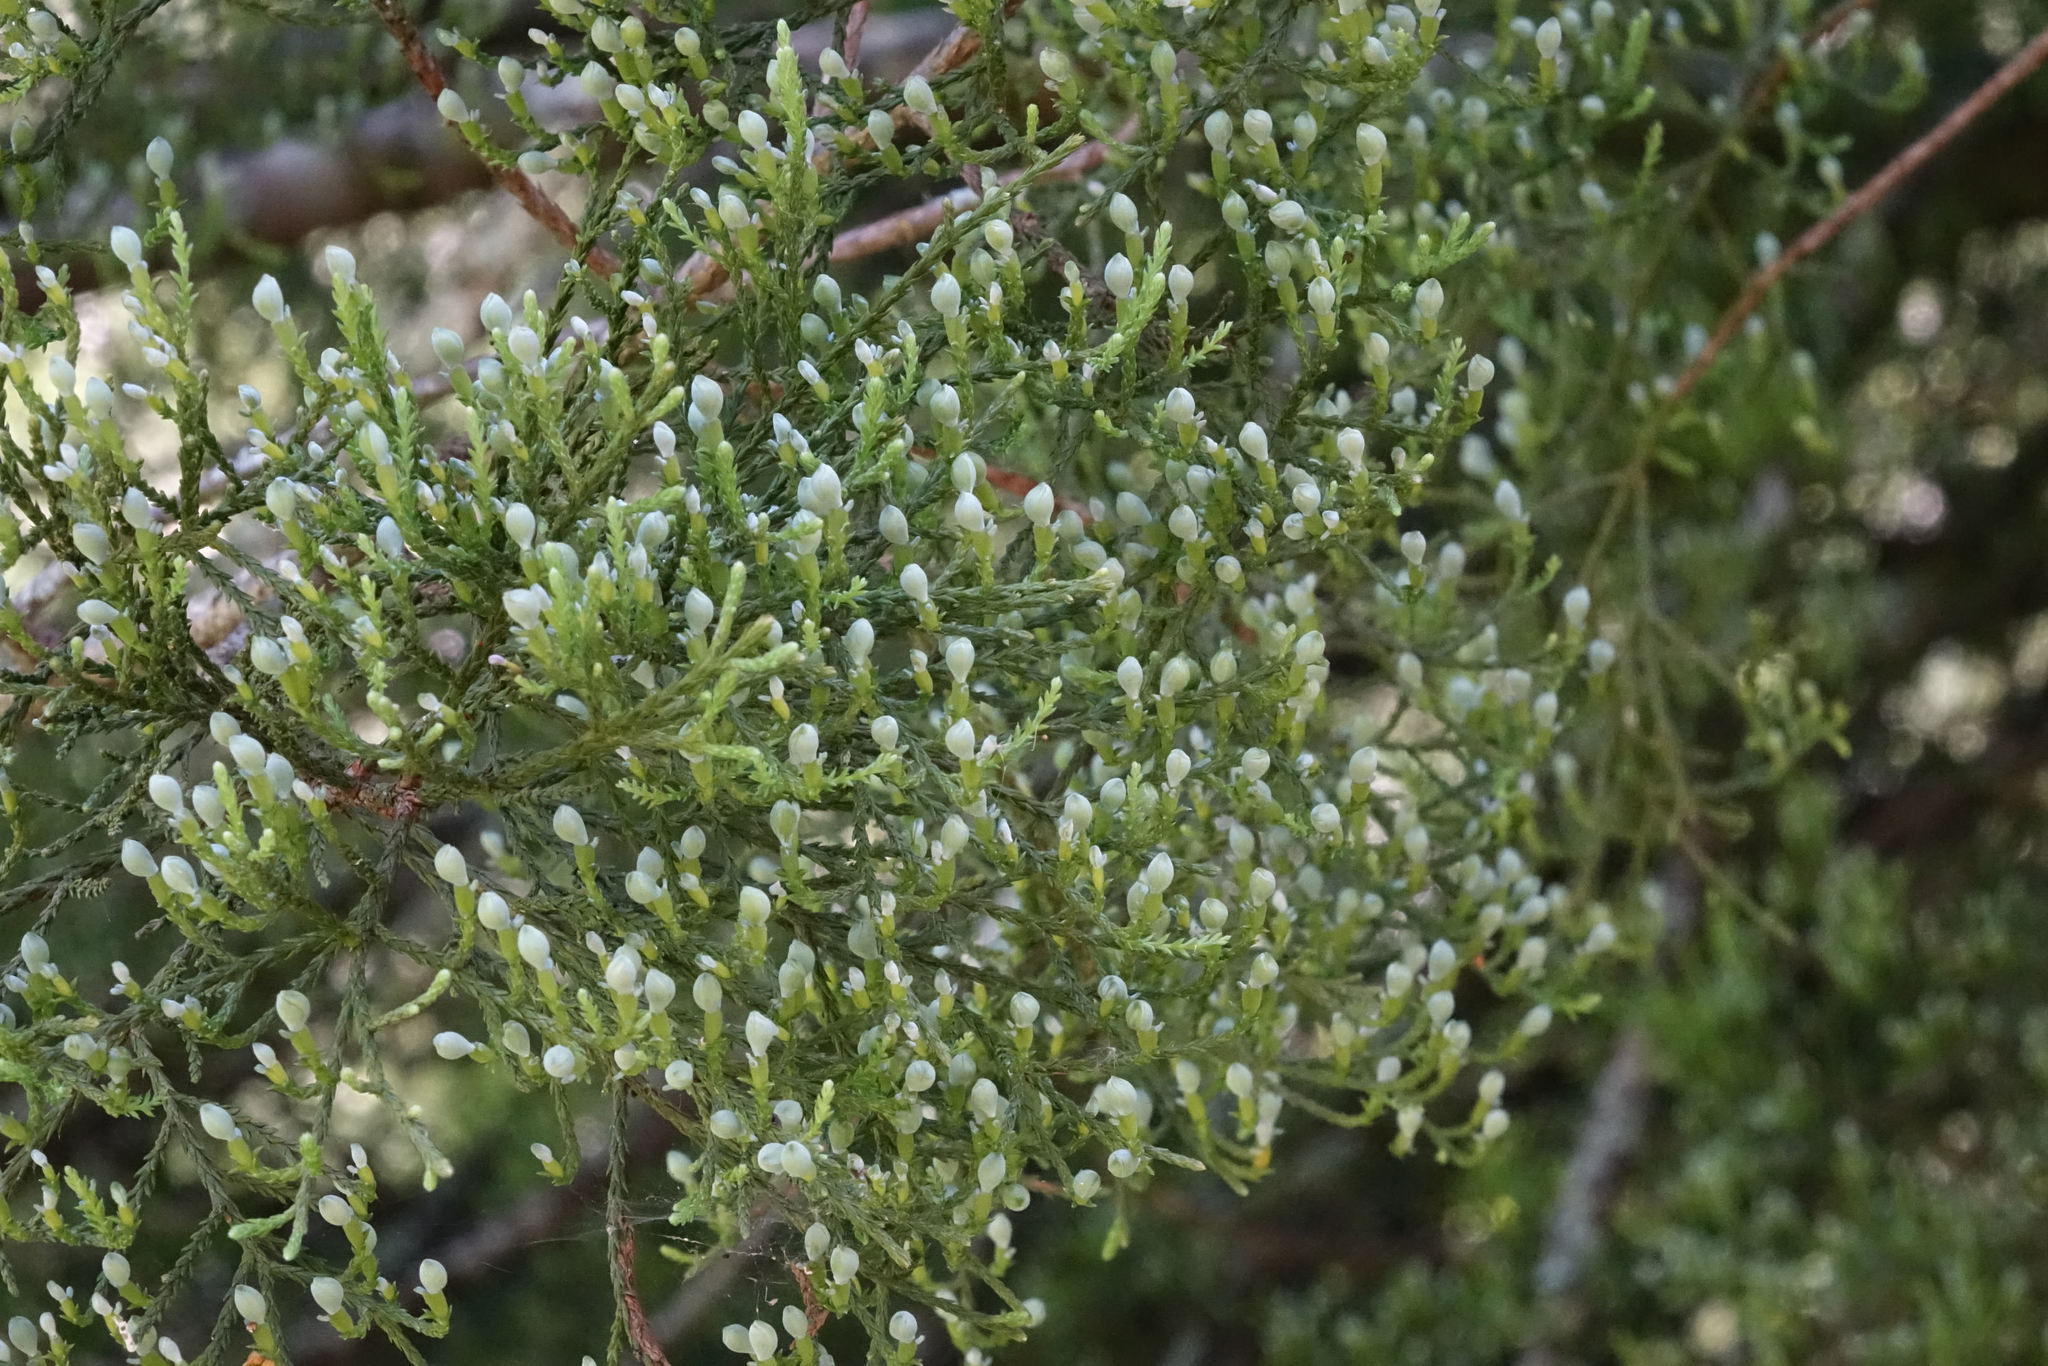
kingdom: Plantae
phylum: Tracheophyta
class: Pinopsida
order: Pinales
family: Podocarpaceae
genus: Dacrycarpus
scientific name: Dacrycarpus dacrydioides
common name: White pine
